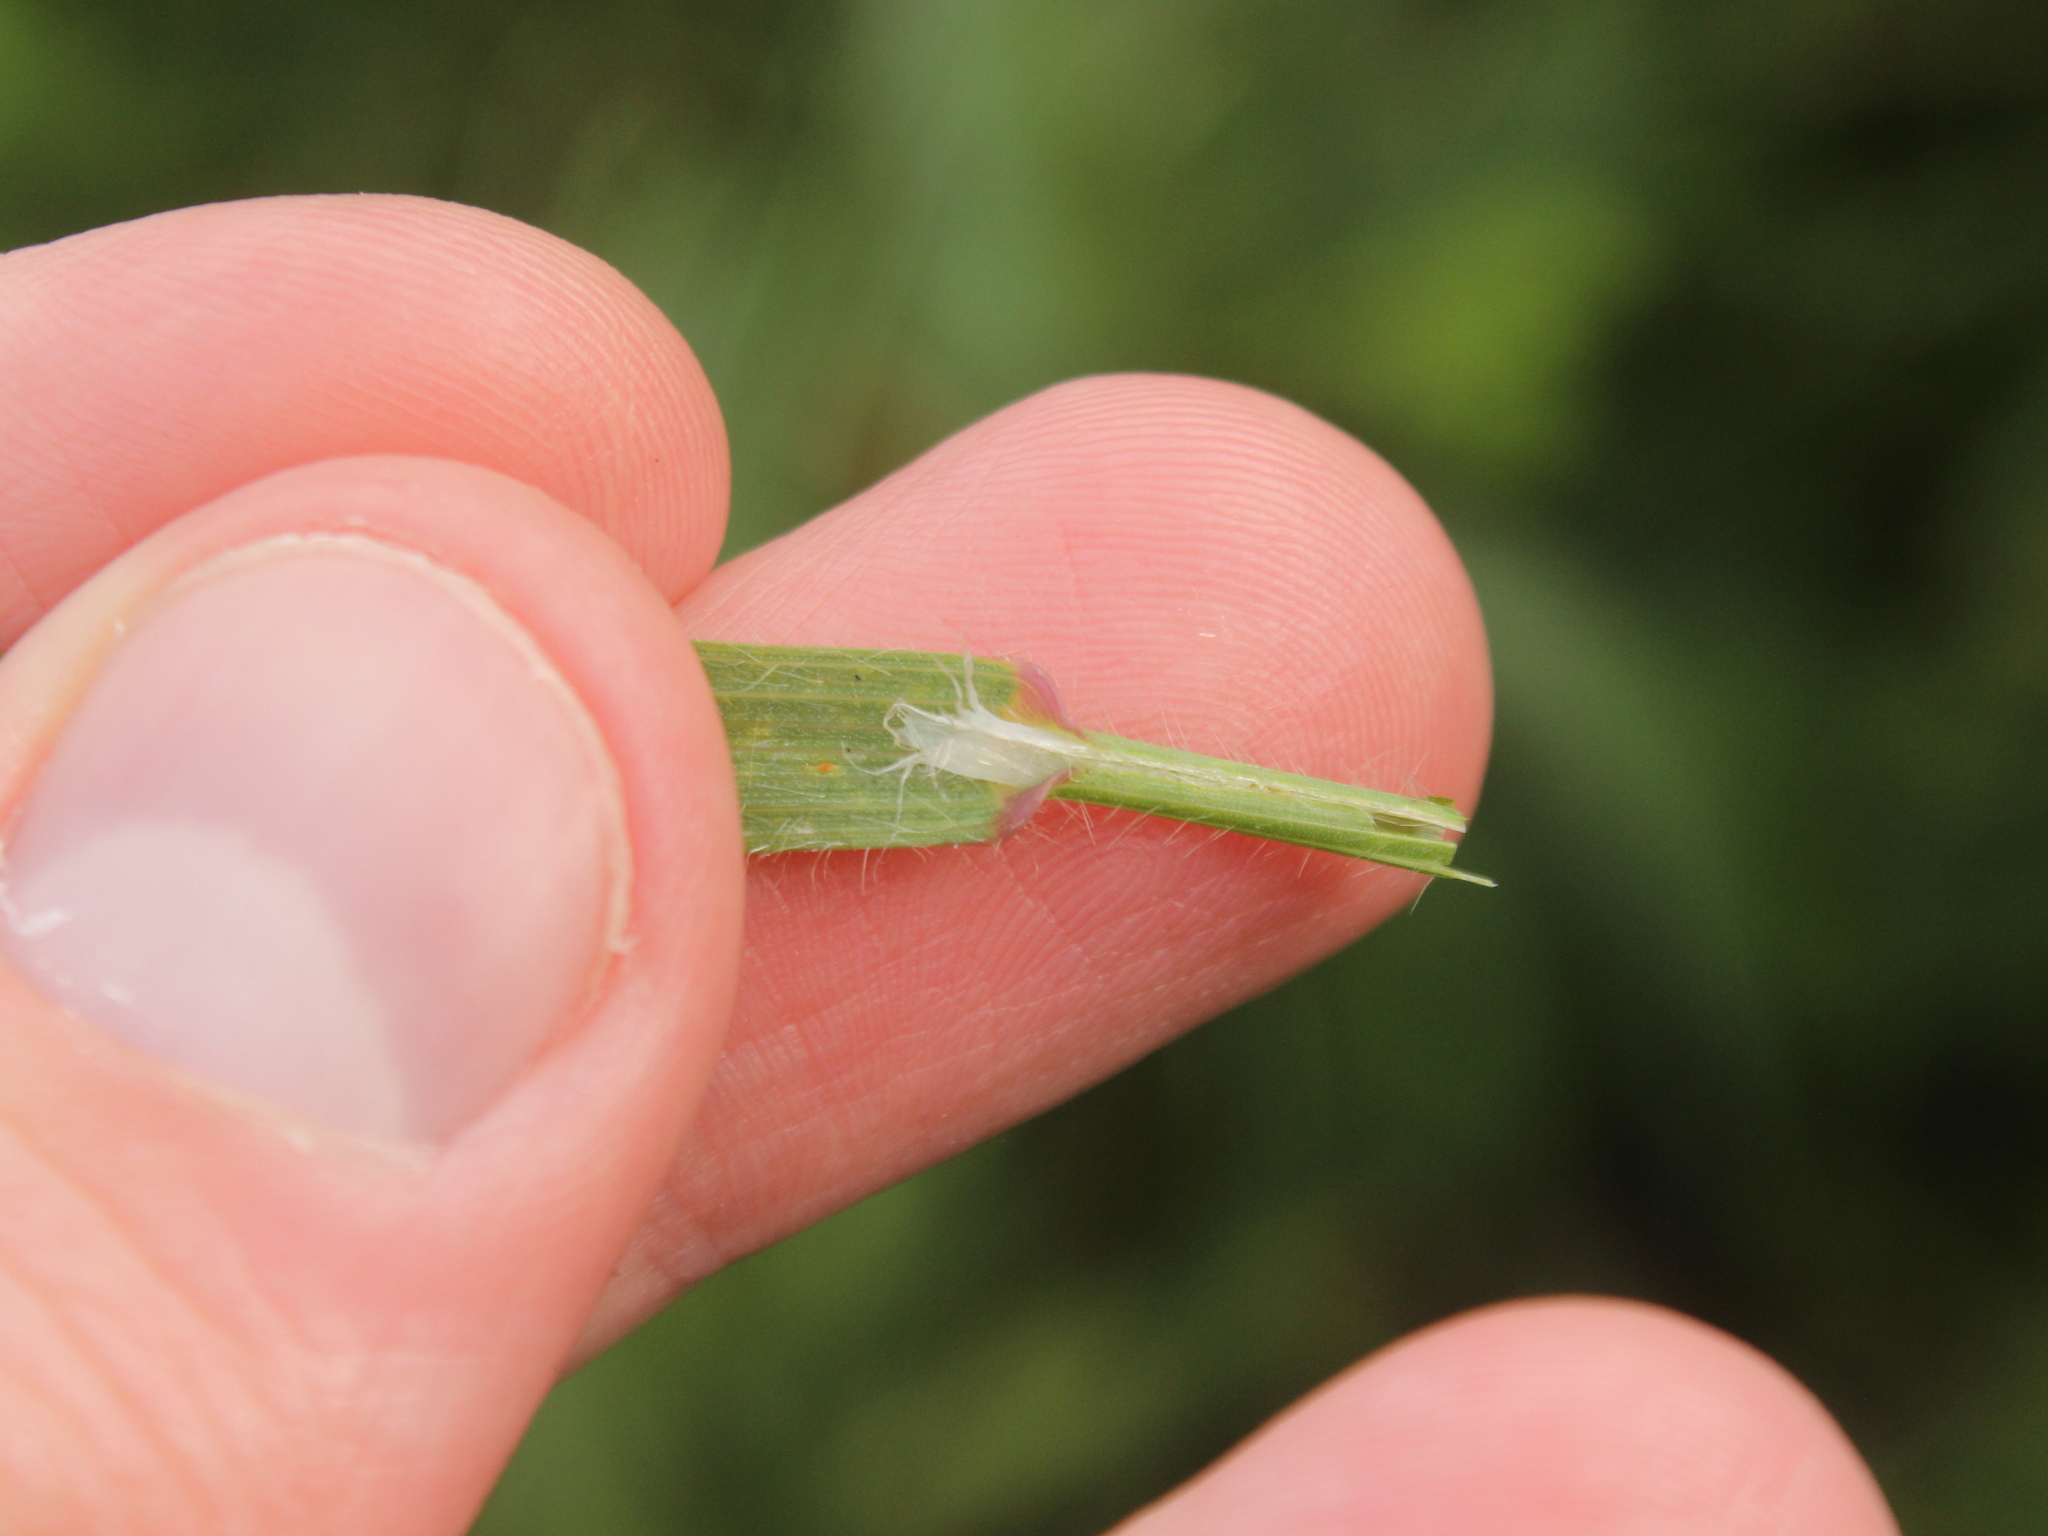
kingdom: Plantae
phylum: Tracheophyta
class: Liliopsida
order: Poales
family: Poaceae
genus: Bromus
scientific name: Bromus diandrus
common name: Ripgut brome
